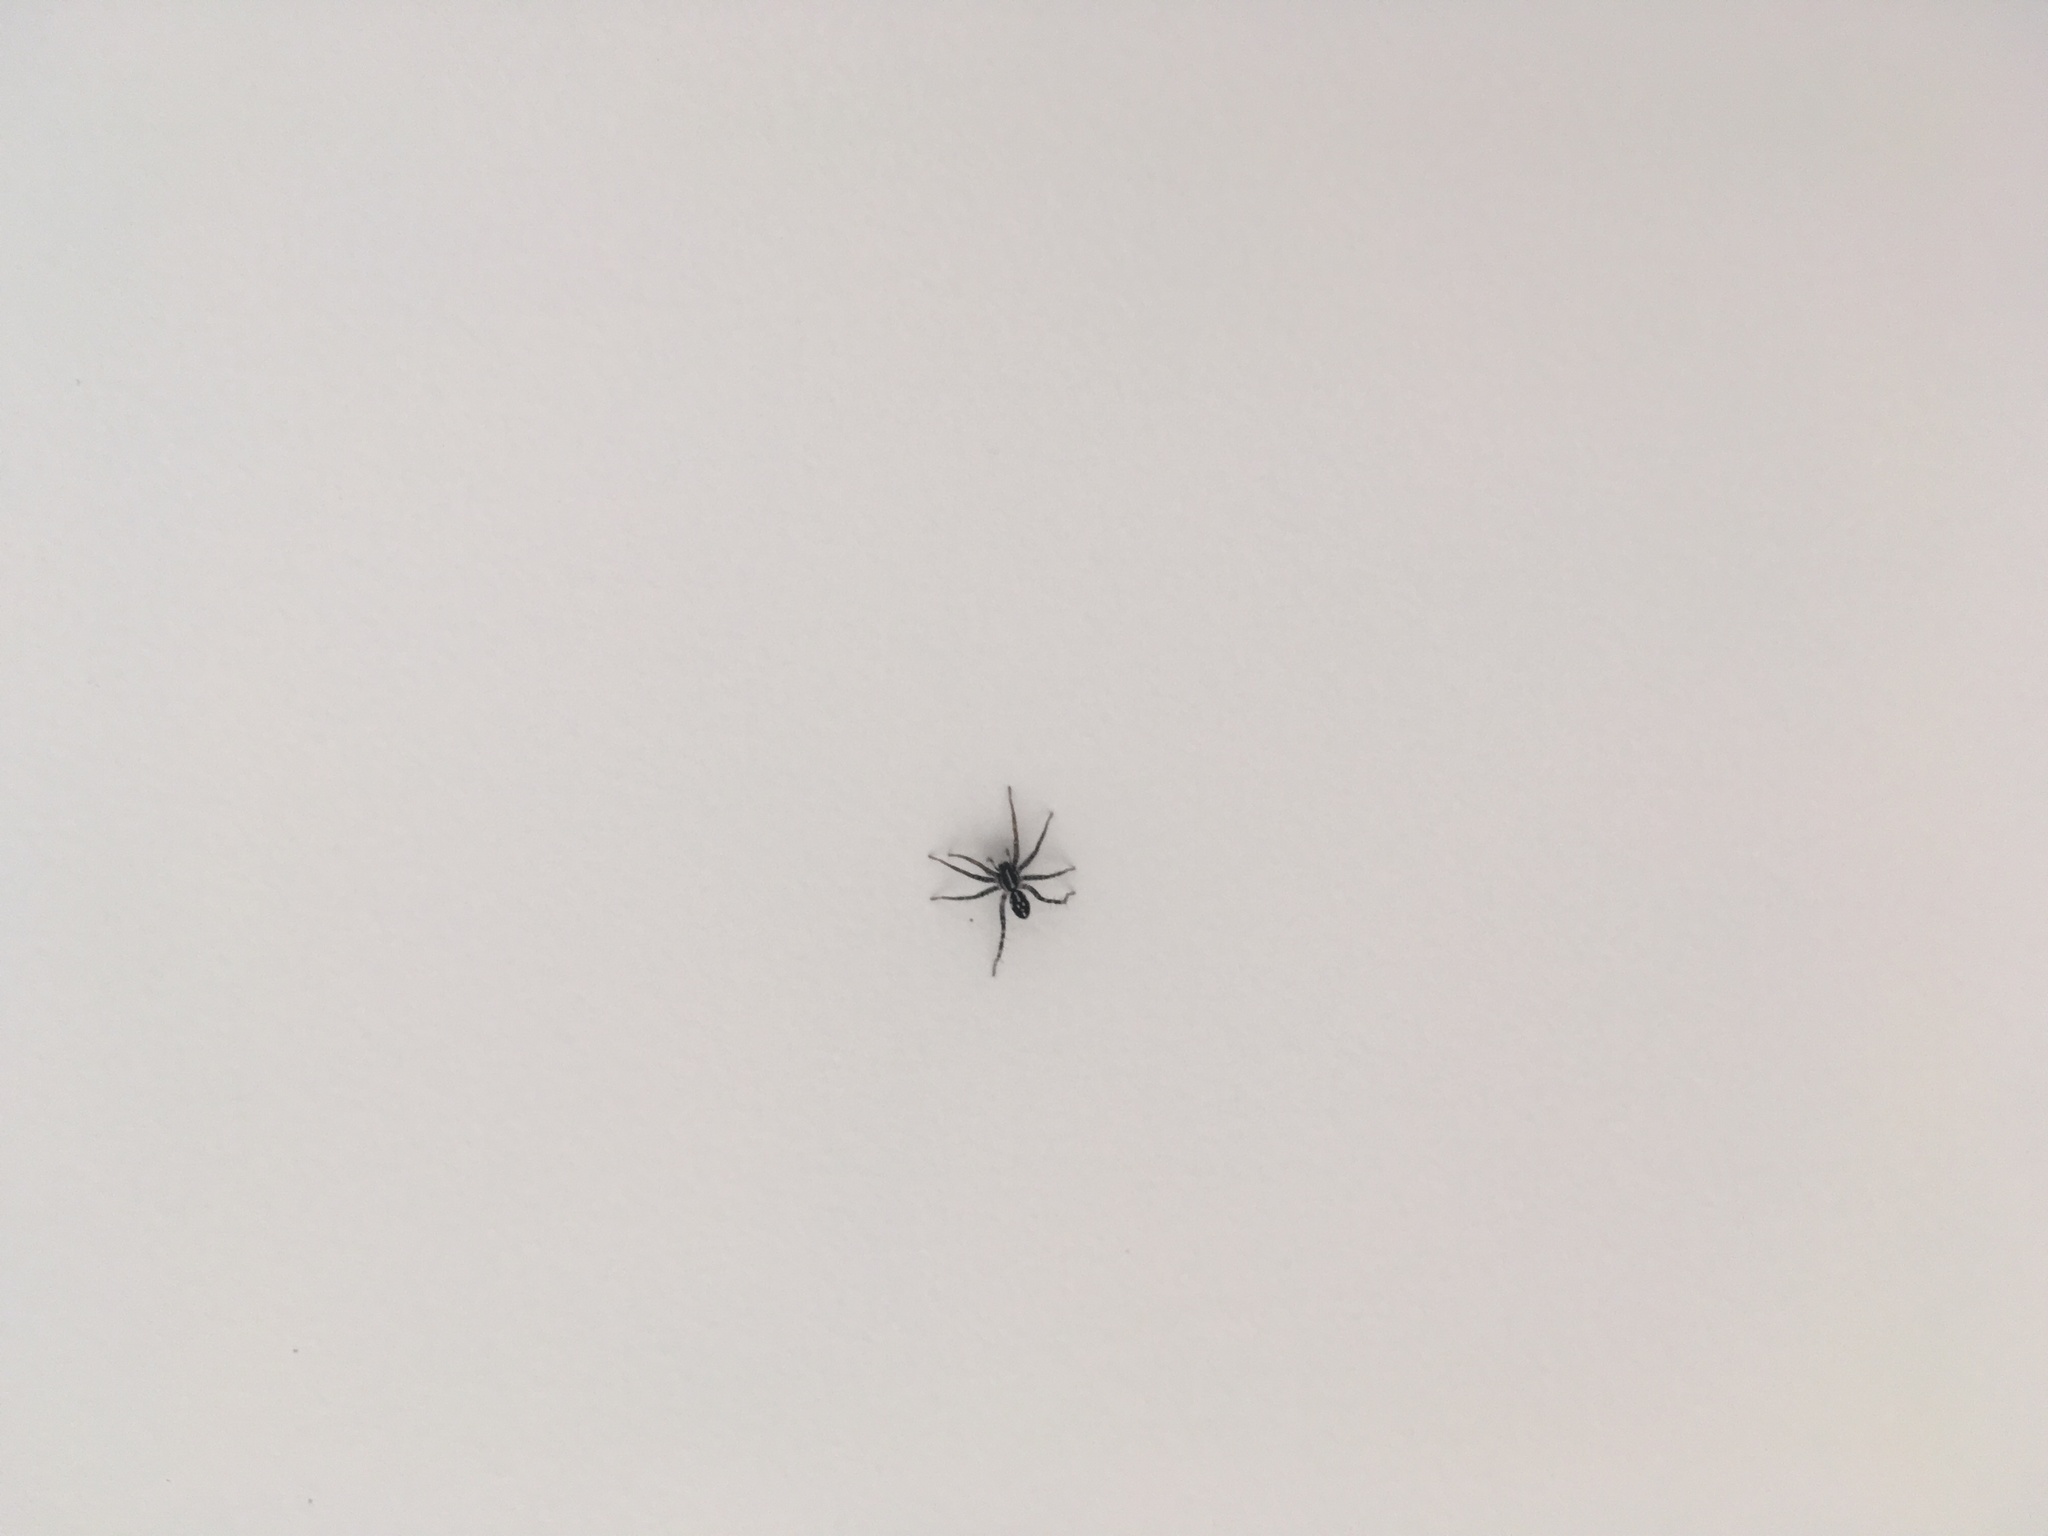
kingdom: Animalia
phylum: Arthropoda
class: Arachnida
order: Araneae
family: Corinnidae
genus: Nyssus
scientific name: Nyssus coloripes
